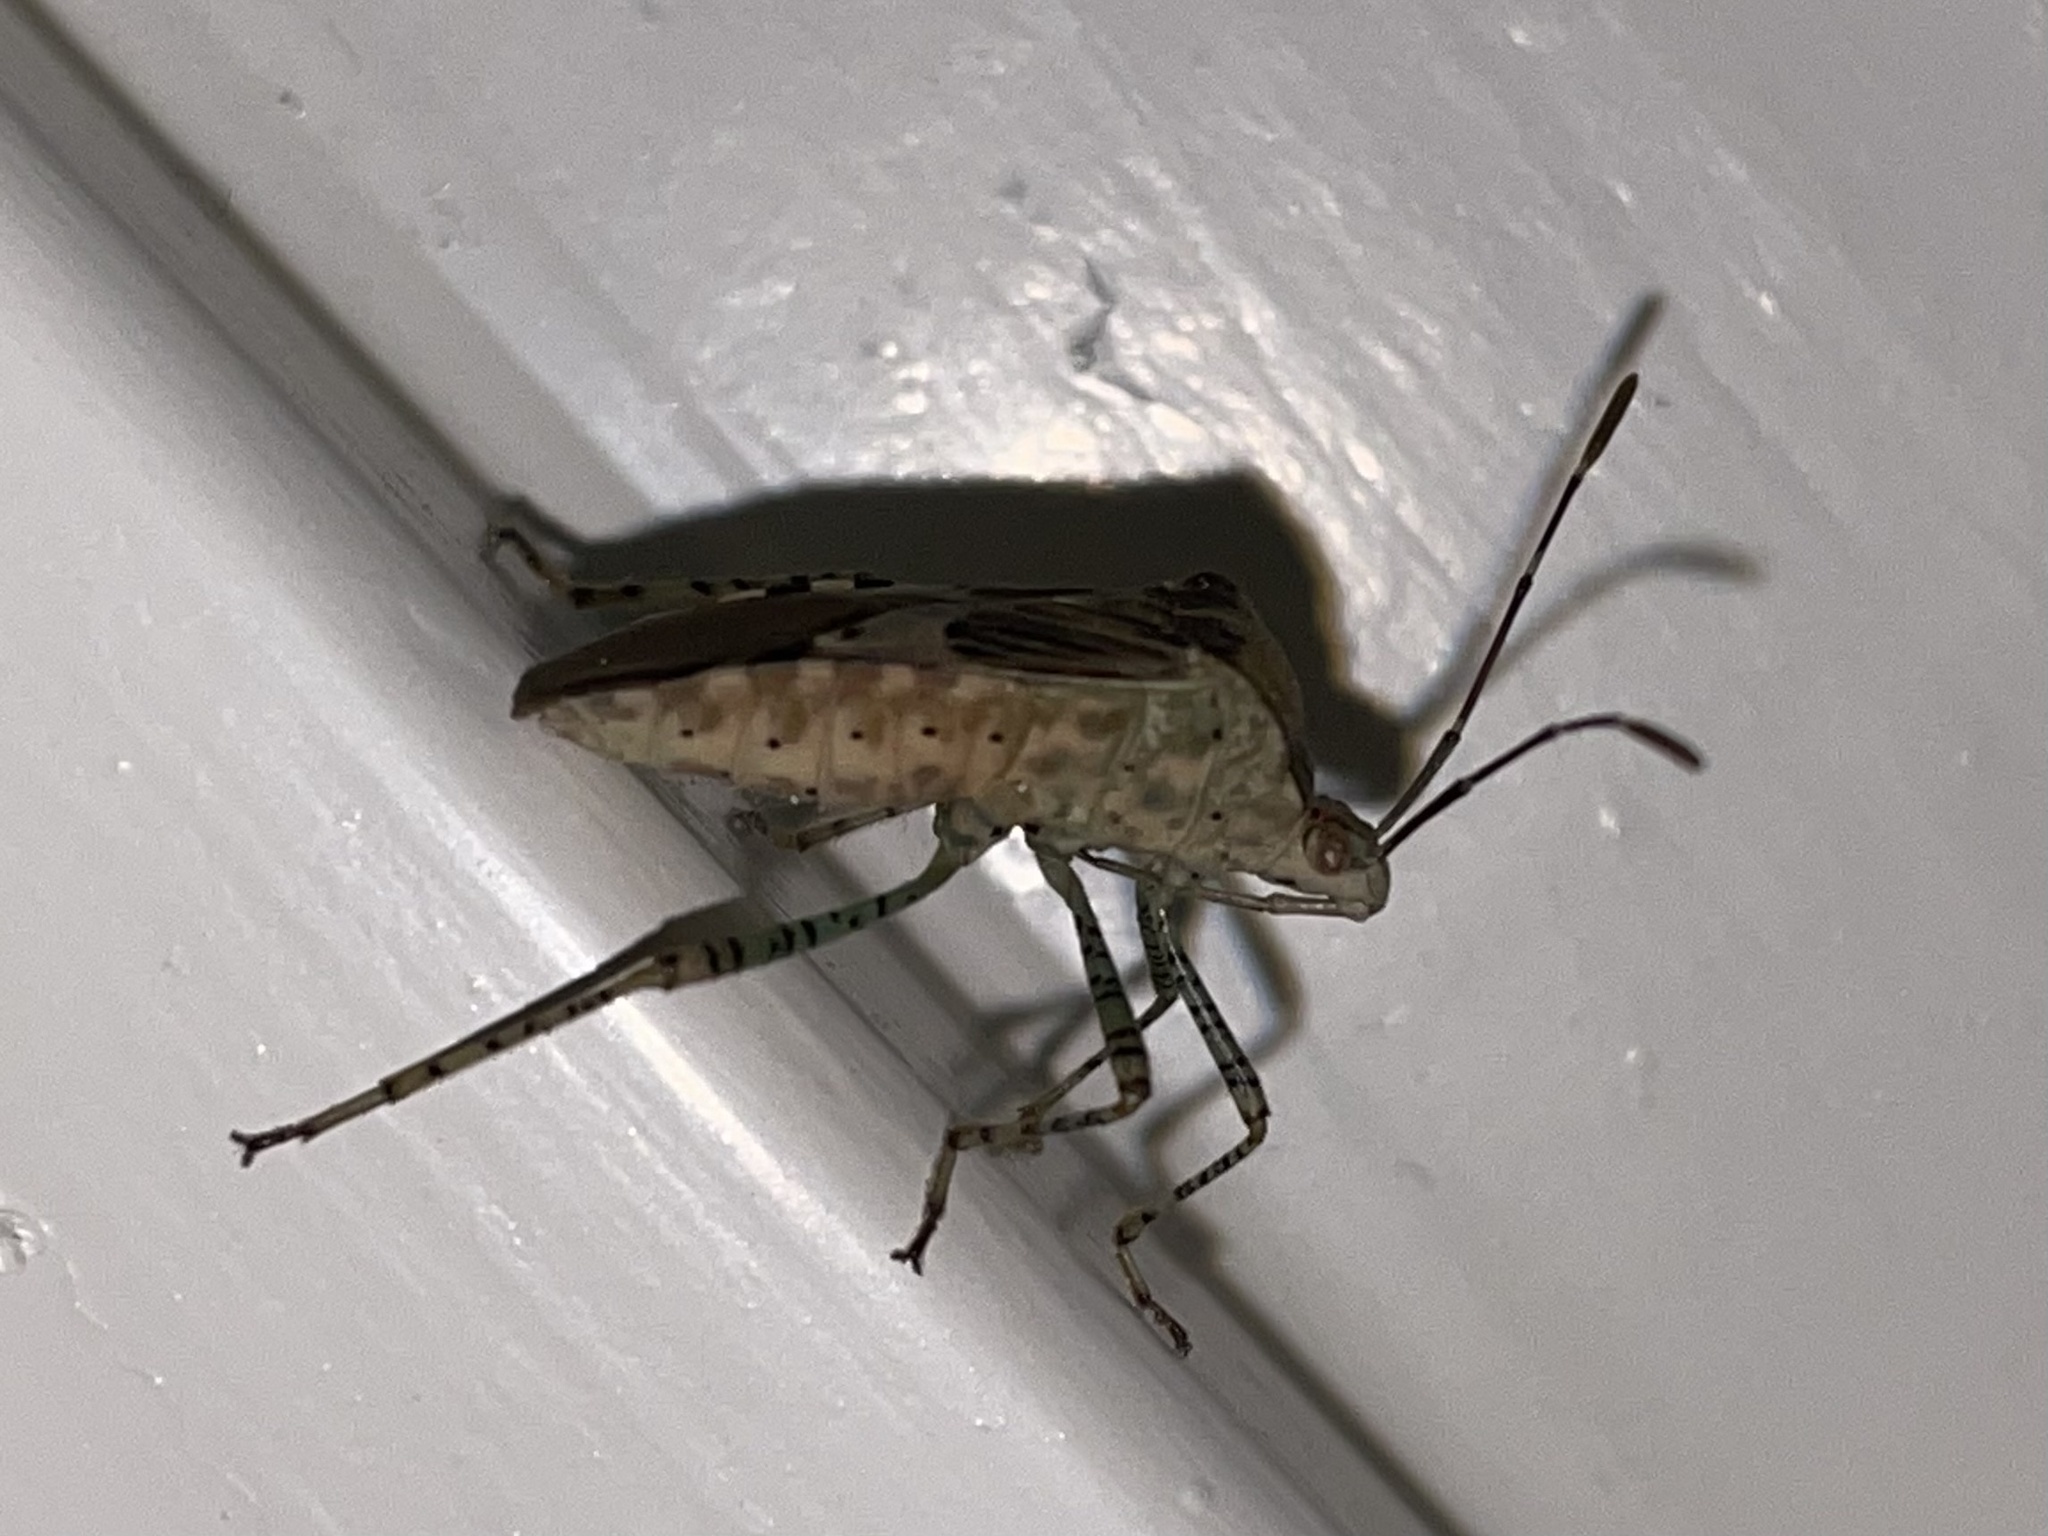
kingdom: Animalia
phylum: Arthropoda
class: Insecta
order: Hemiptera
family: Coreidae
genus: Hypselonotus
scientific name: Hypselonotus punctiventris
